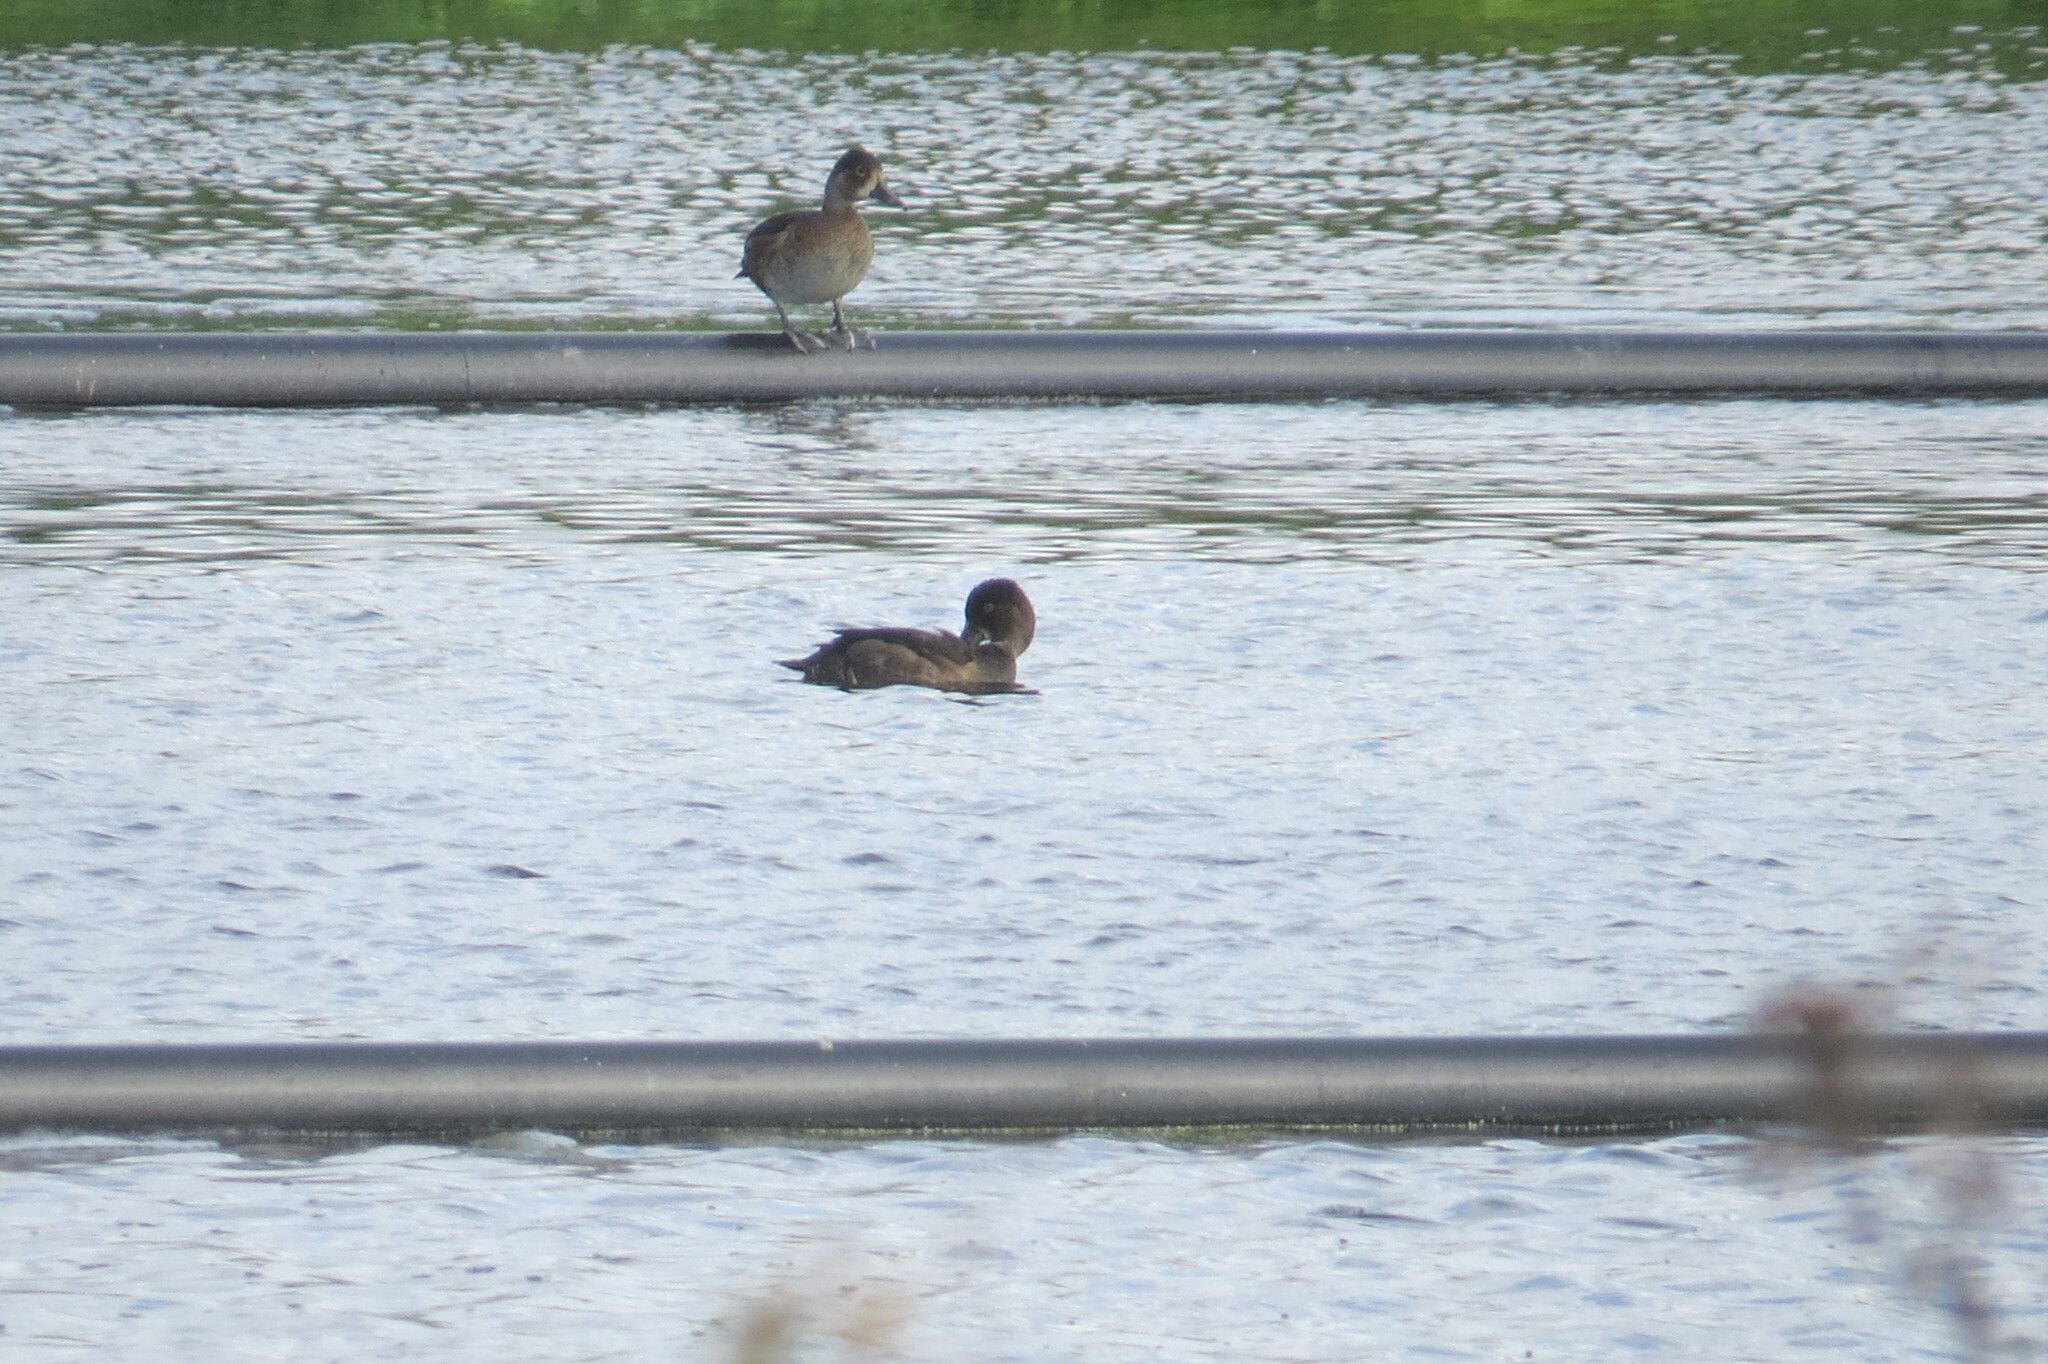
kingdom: Animalia
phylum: Chordata
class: Aves
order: Anseriformes
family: Anatidae
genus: Aythya
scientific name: Aythya collaris
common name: Ring-necked duck
